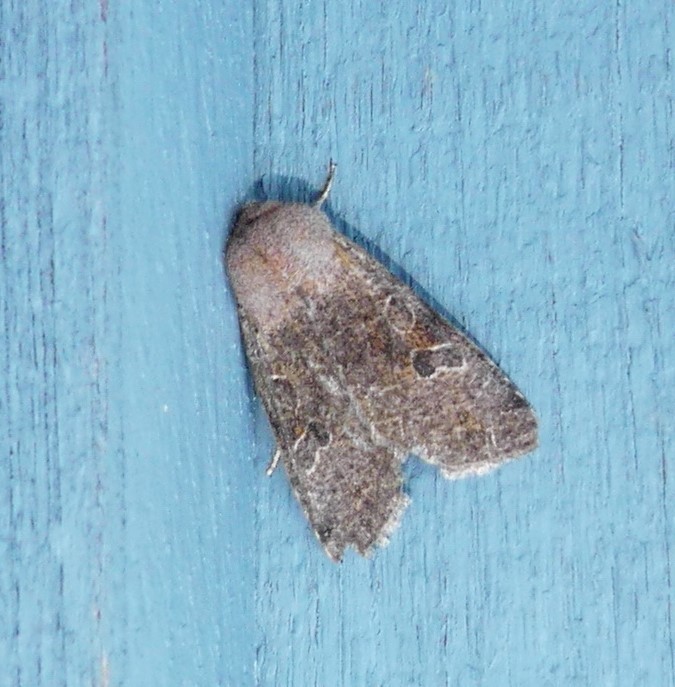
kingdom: Animalia
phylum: Arthropoda
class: Insecta
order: Lepidoptera
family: Noctuidae
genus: Orthosia
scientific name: Orthosia hibisci
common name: Green fruitworm
